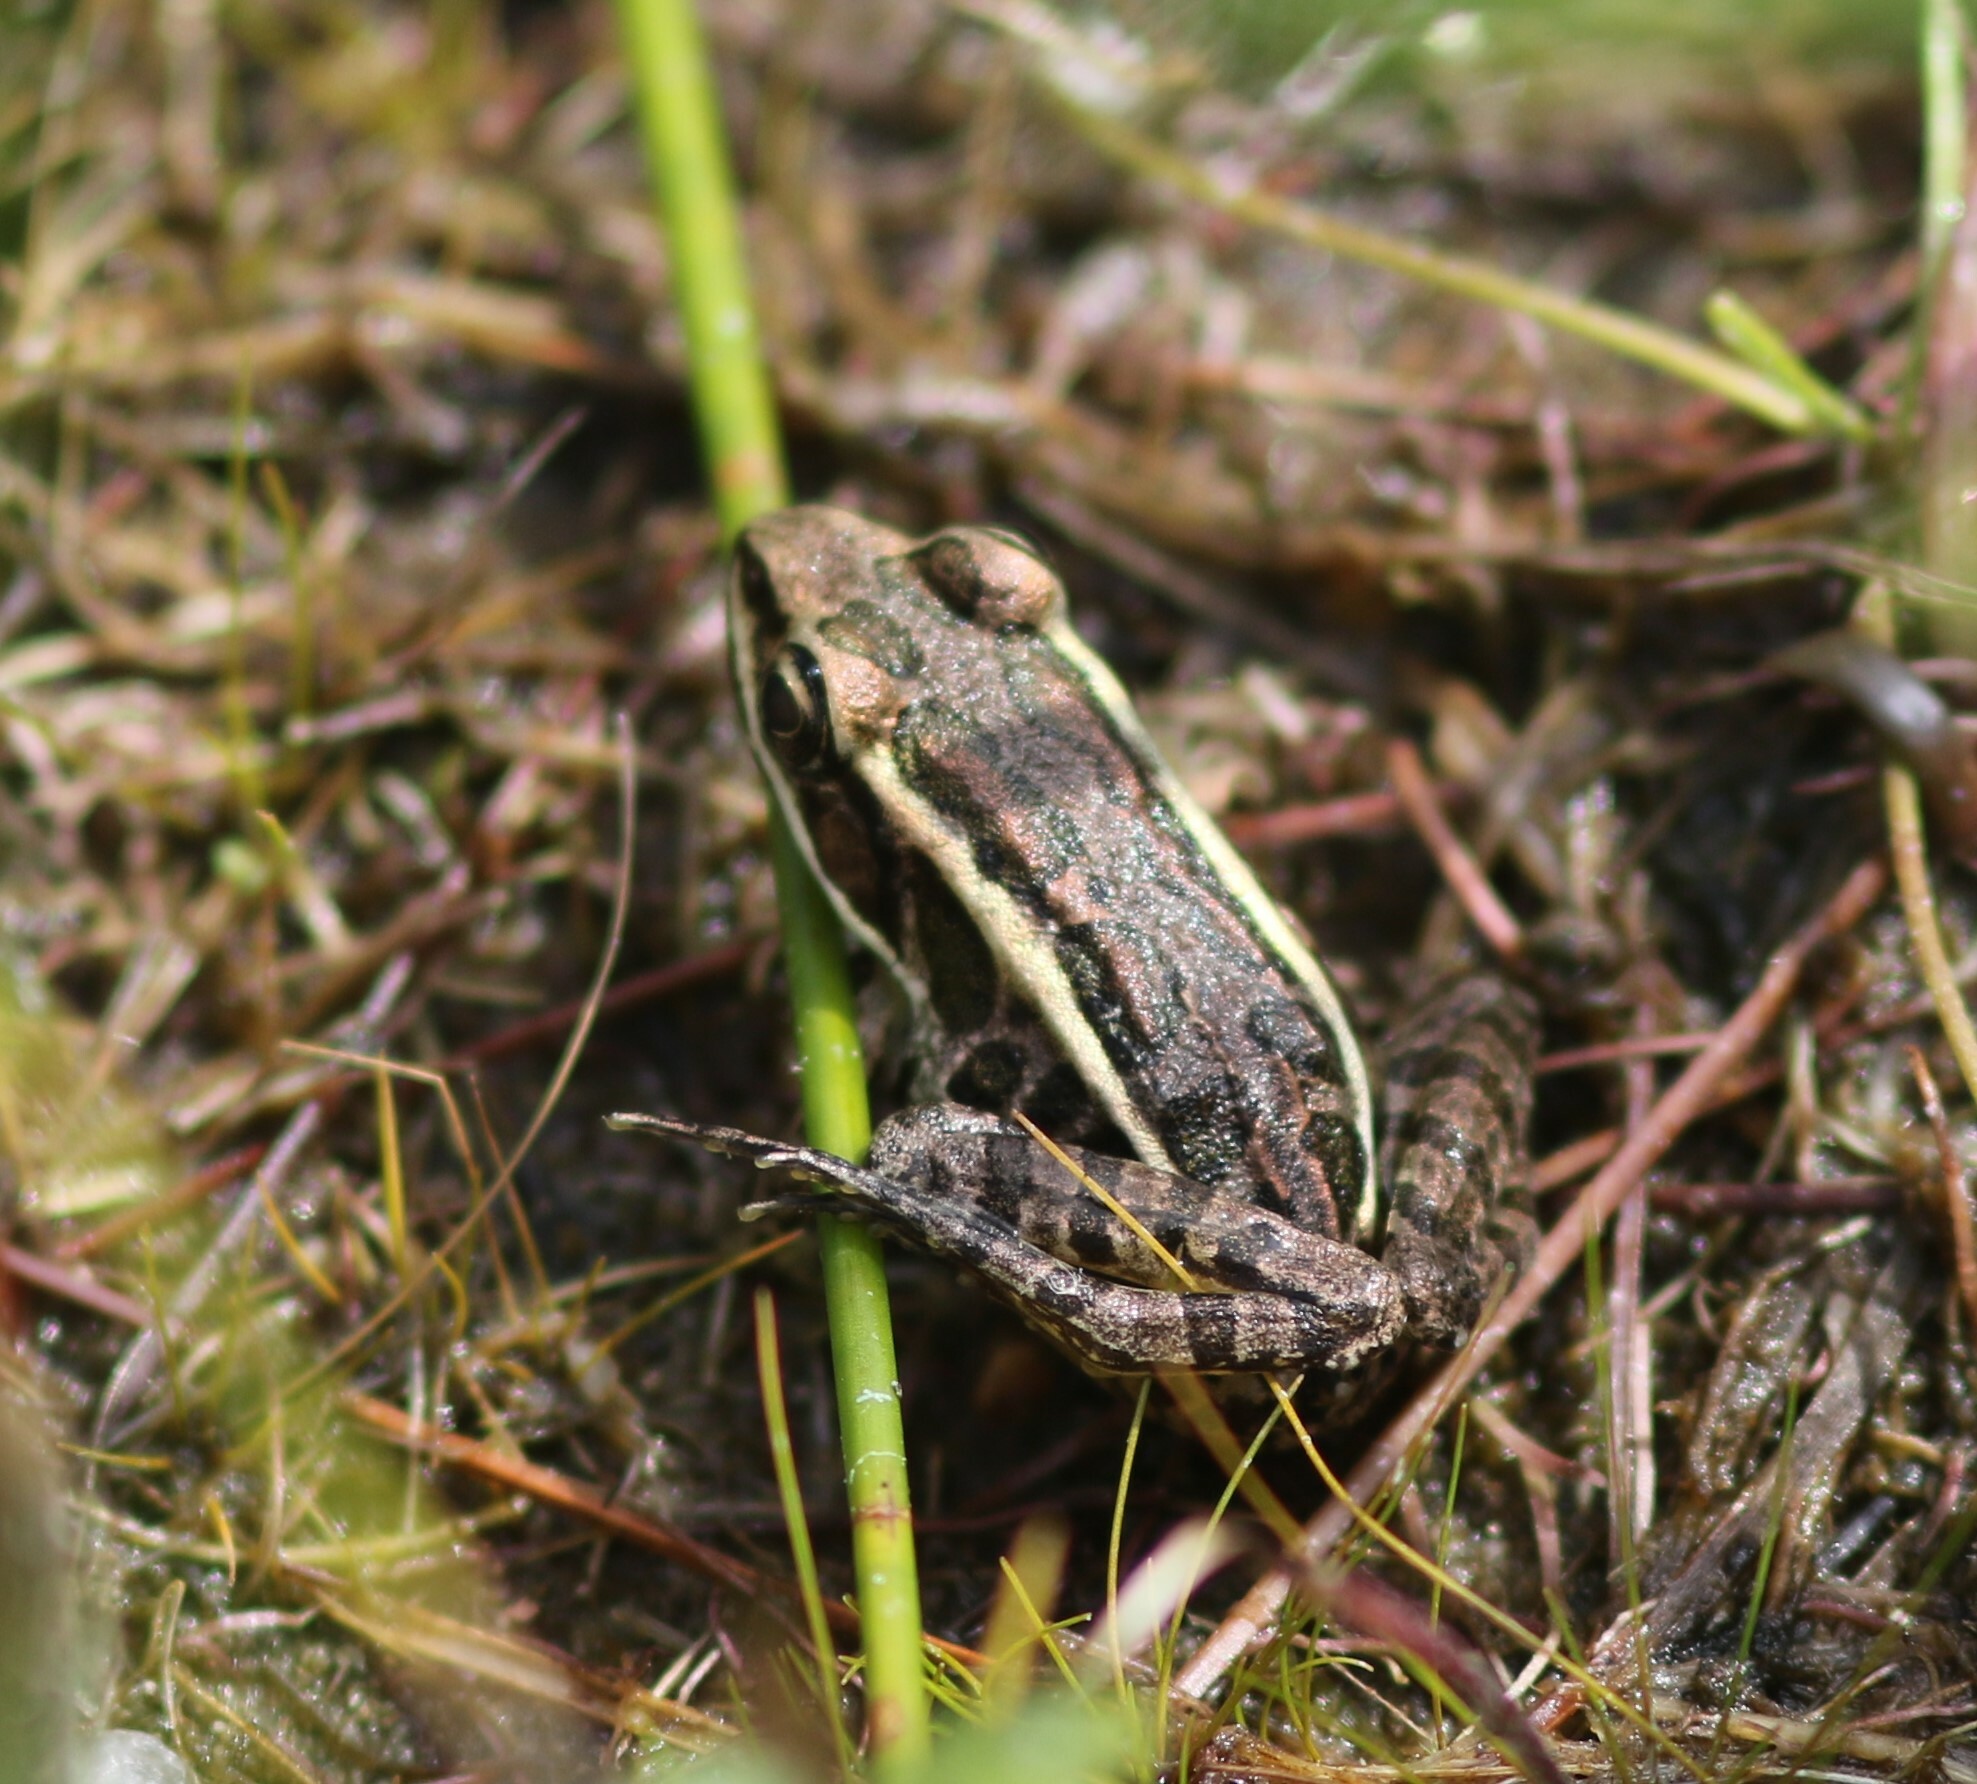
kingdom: Animalia
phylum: Chordata
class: Amphibia
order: Anura
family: Ranidae
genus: Lithobates
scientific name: Lithobates palustris
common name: Pickerel frog
